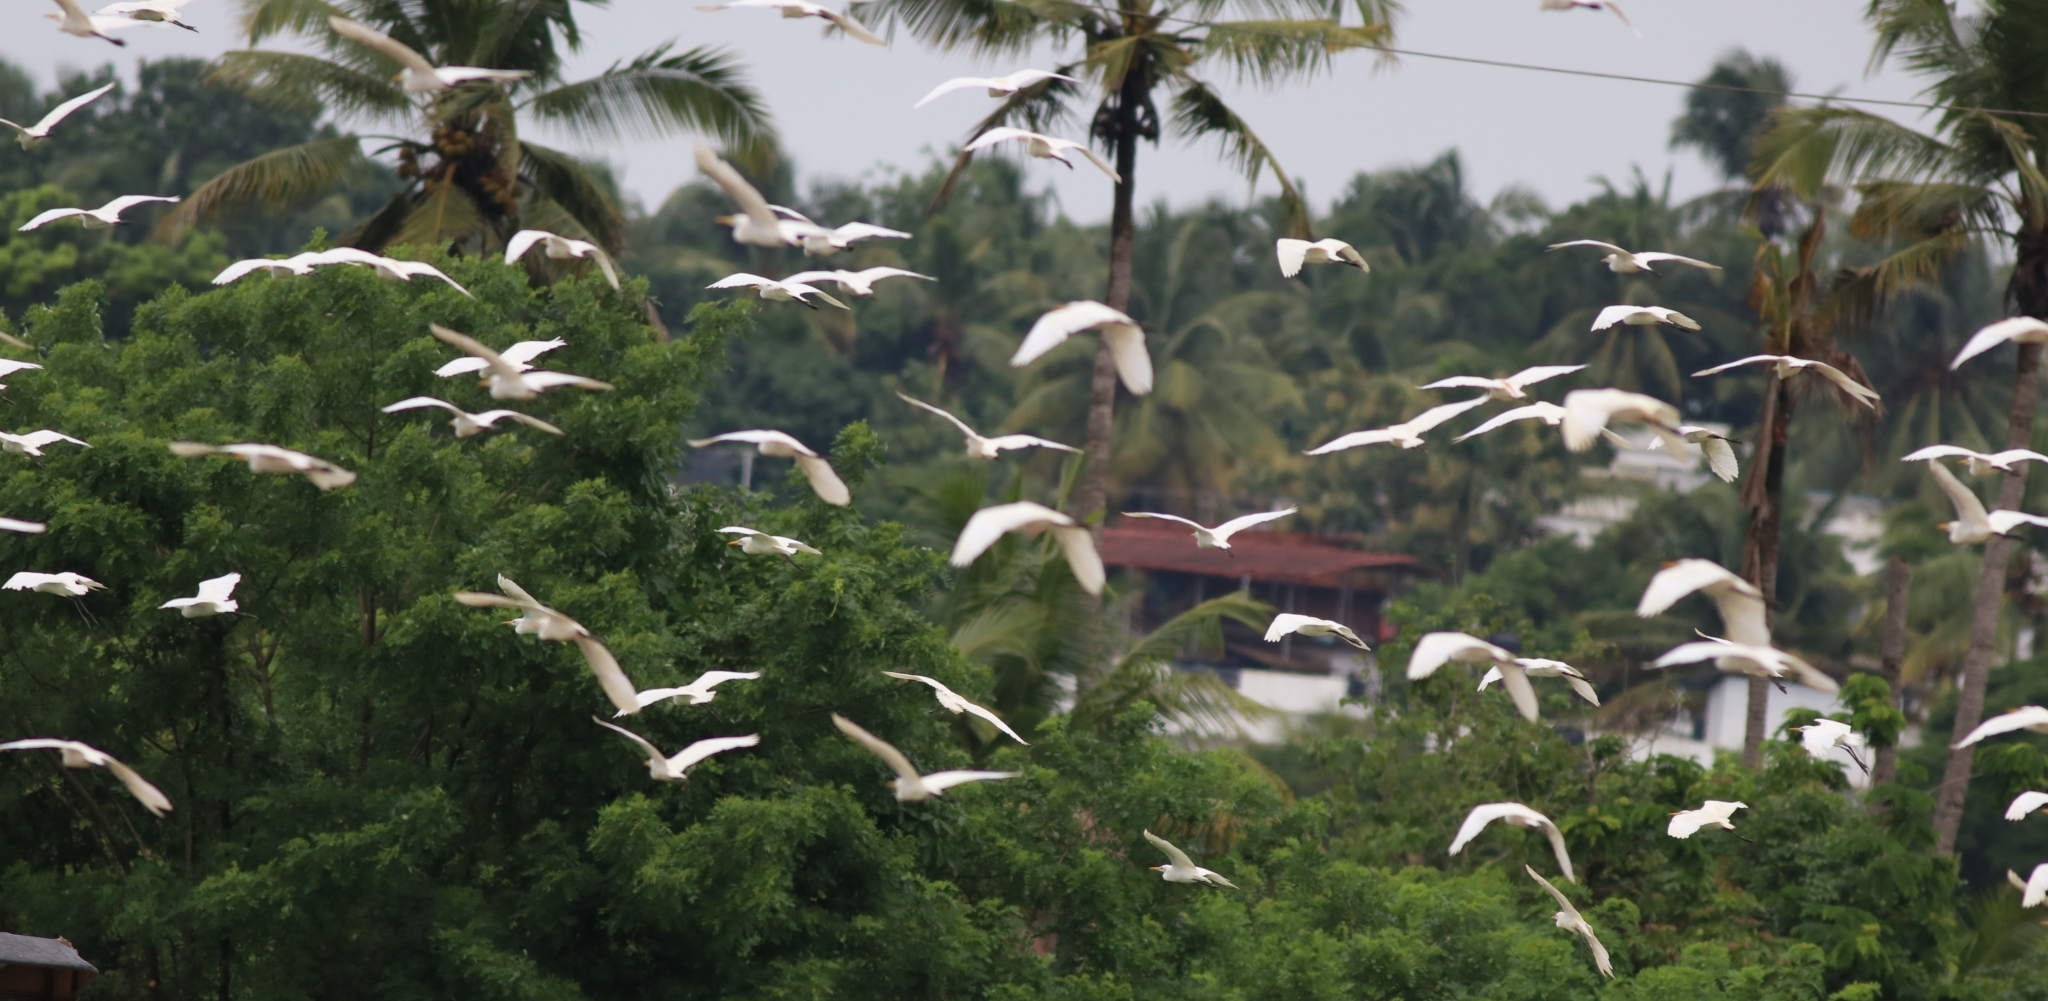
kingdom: Animalia
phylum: Chordata
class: Aves
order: Pelecaniformes
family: Ardeidae
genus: Bubulcus
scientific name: Bubulcus coromandus
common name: Eastern cattle egret
